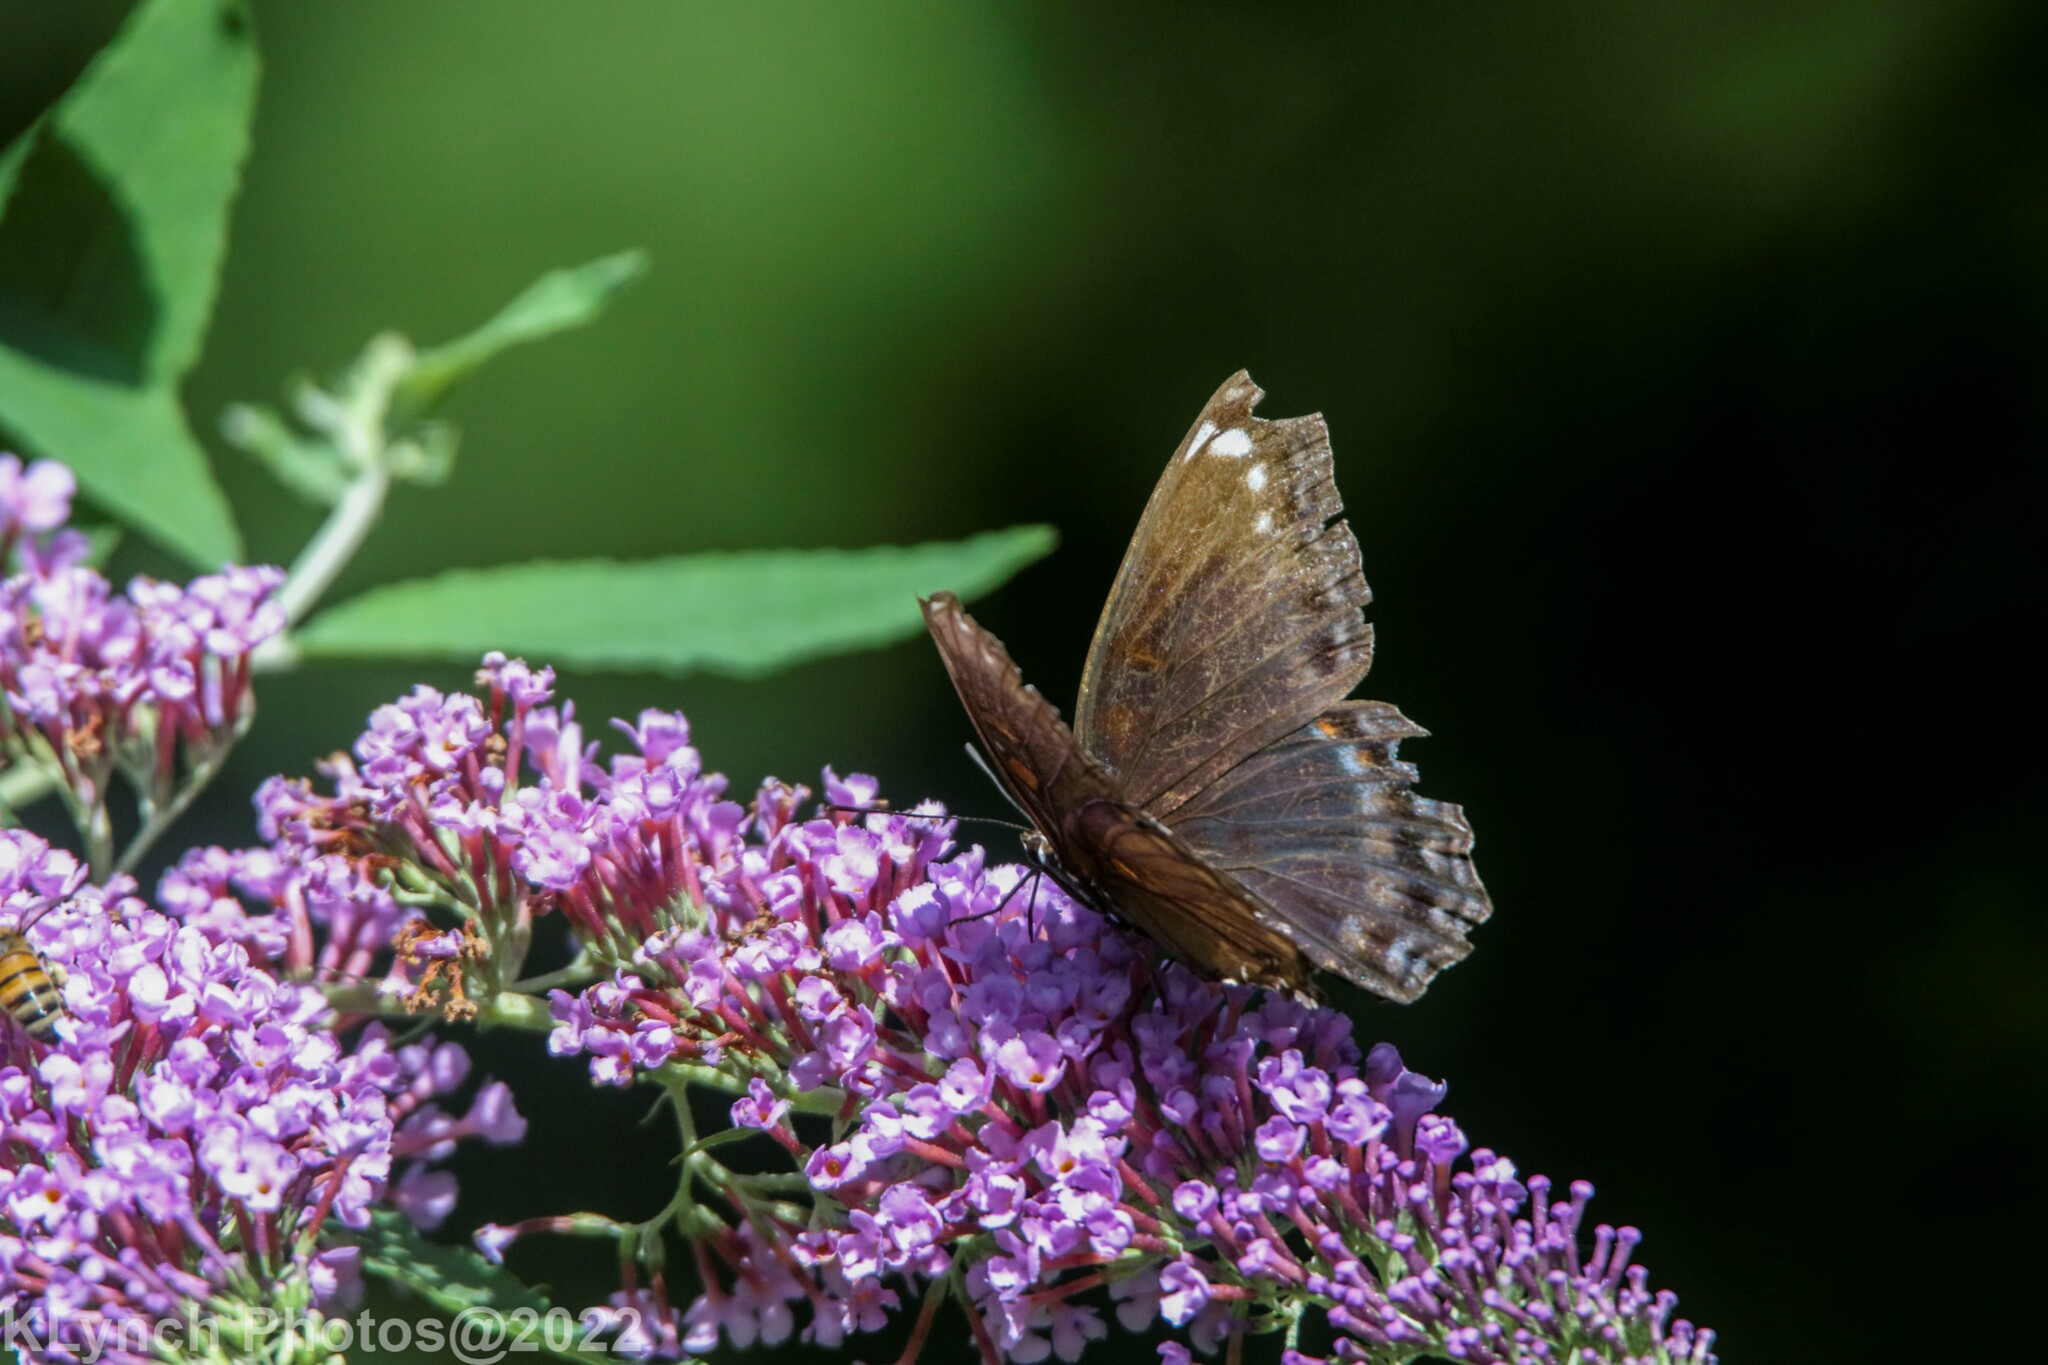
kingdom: Animalia
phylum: Arthropoda
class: Insecta
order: Lepidoptera
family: Nymphalidae
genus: Limenitis
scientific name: Limenitis arthemis
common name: Red-spotted admiral
